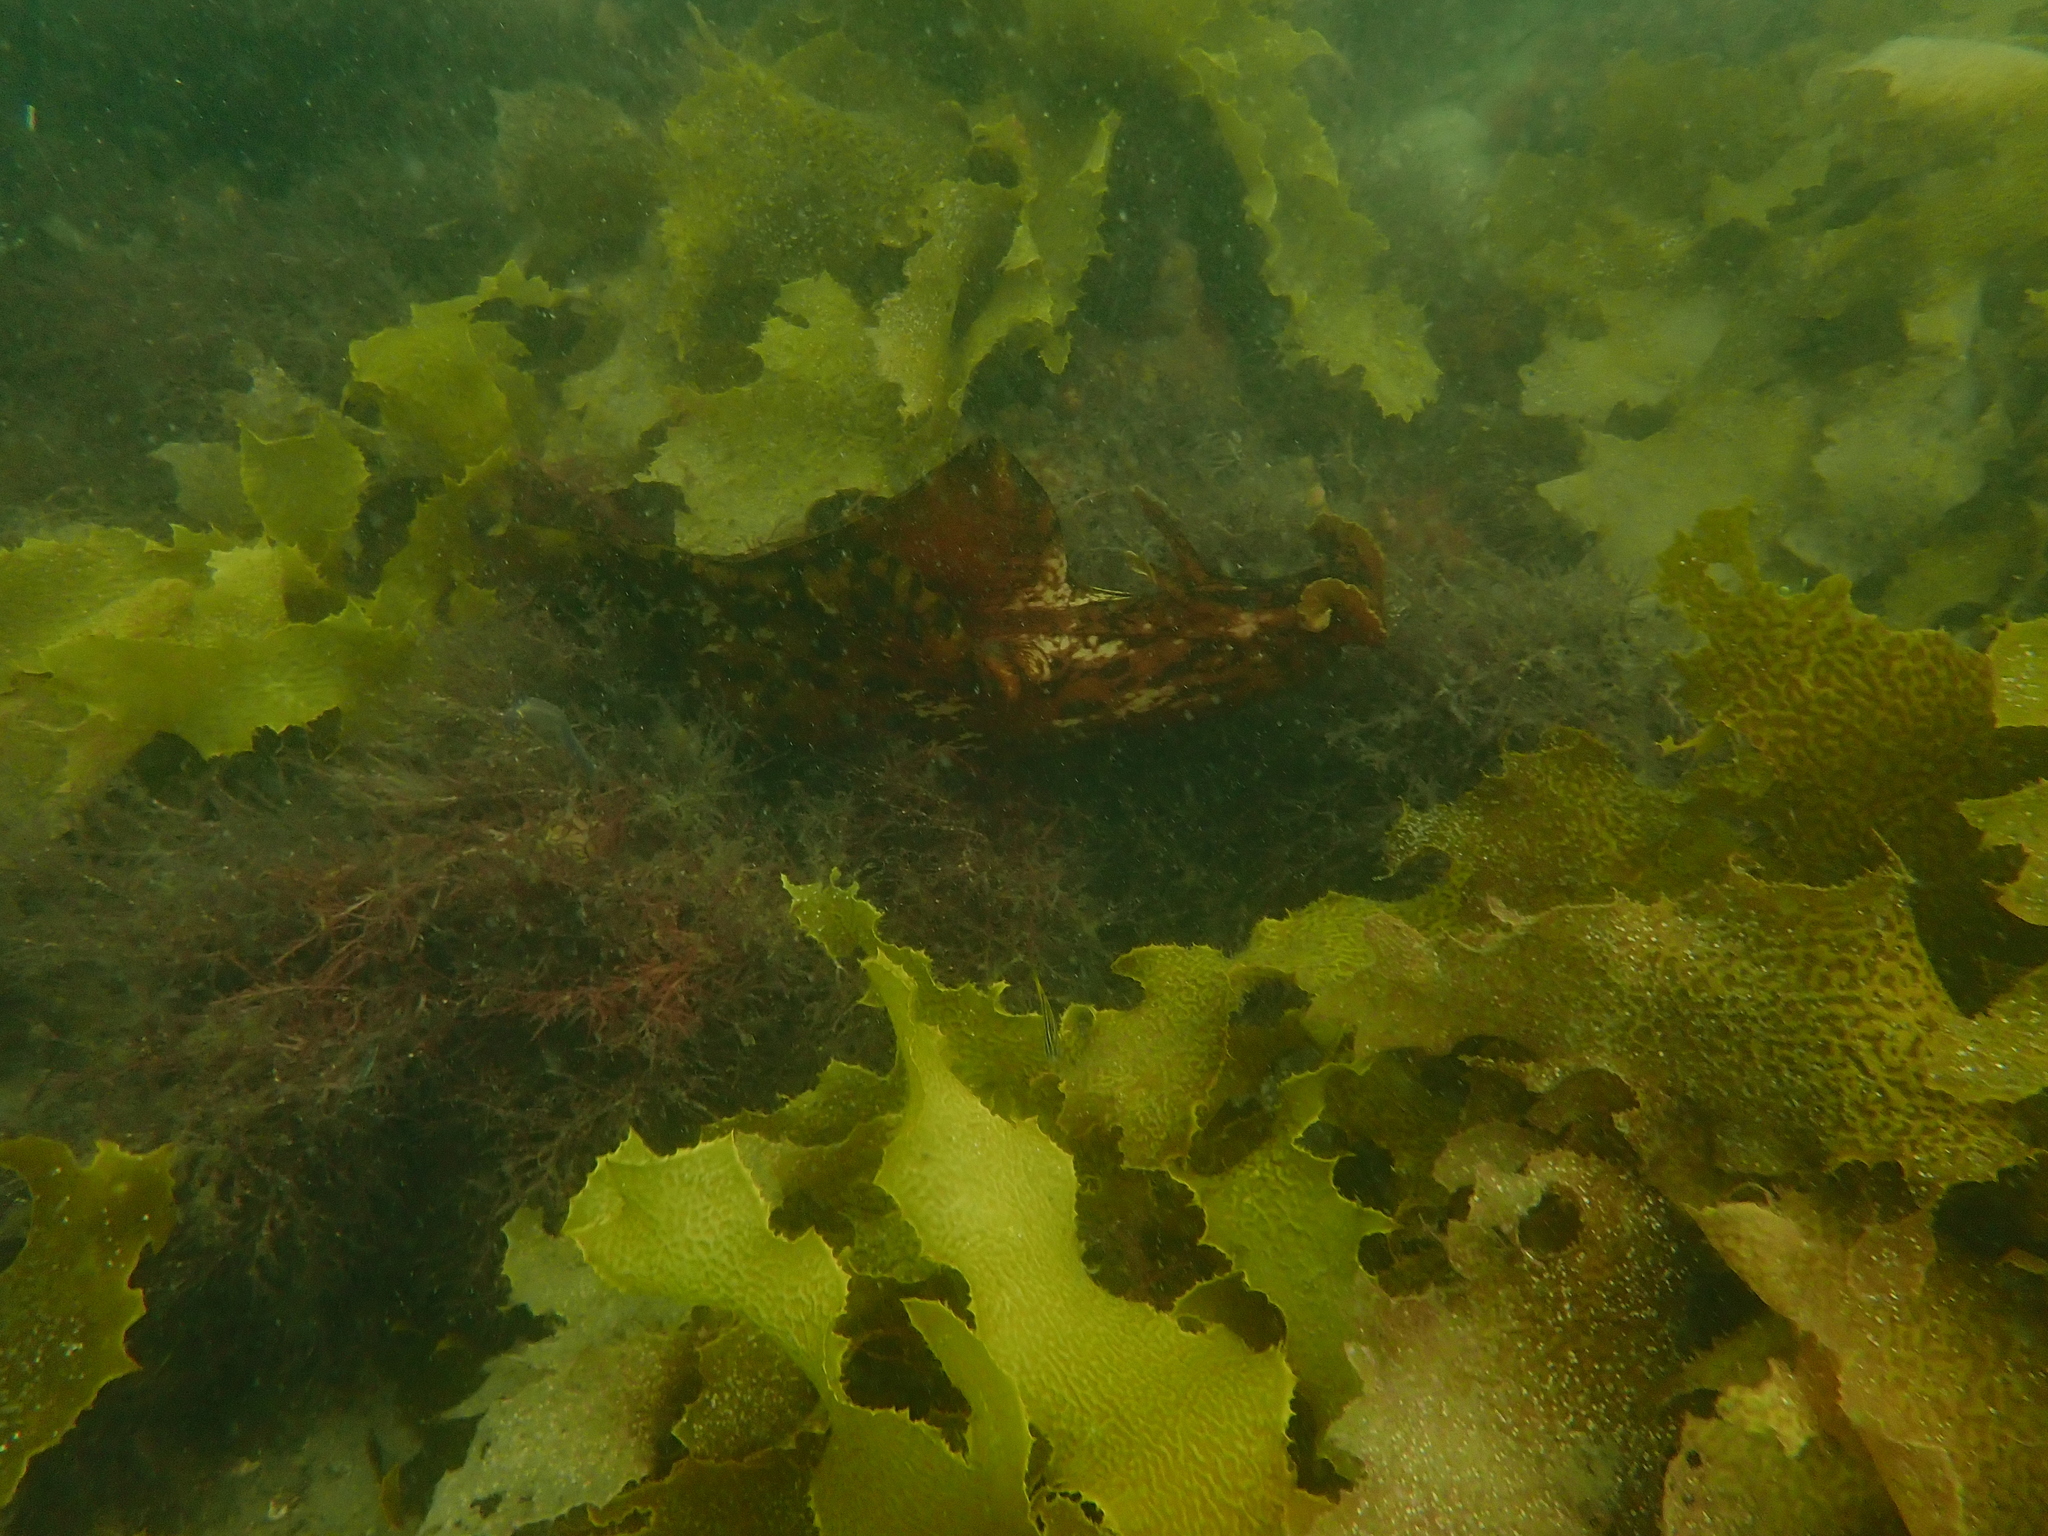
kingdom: Chromista
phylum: Ochrophyta
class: Phaeophyceae
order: Laminariales
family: Lessoniaceae
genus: Ecklonia
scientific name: Ecklonia radiata
